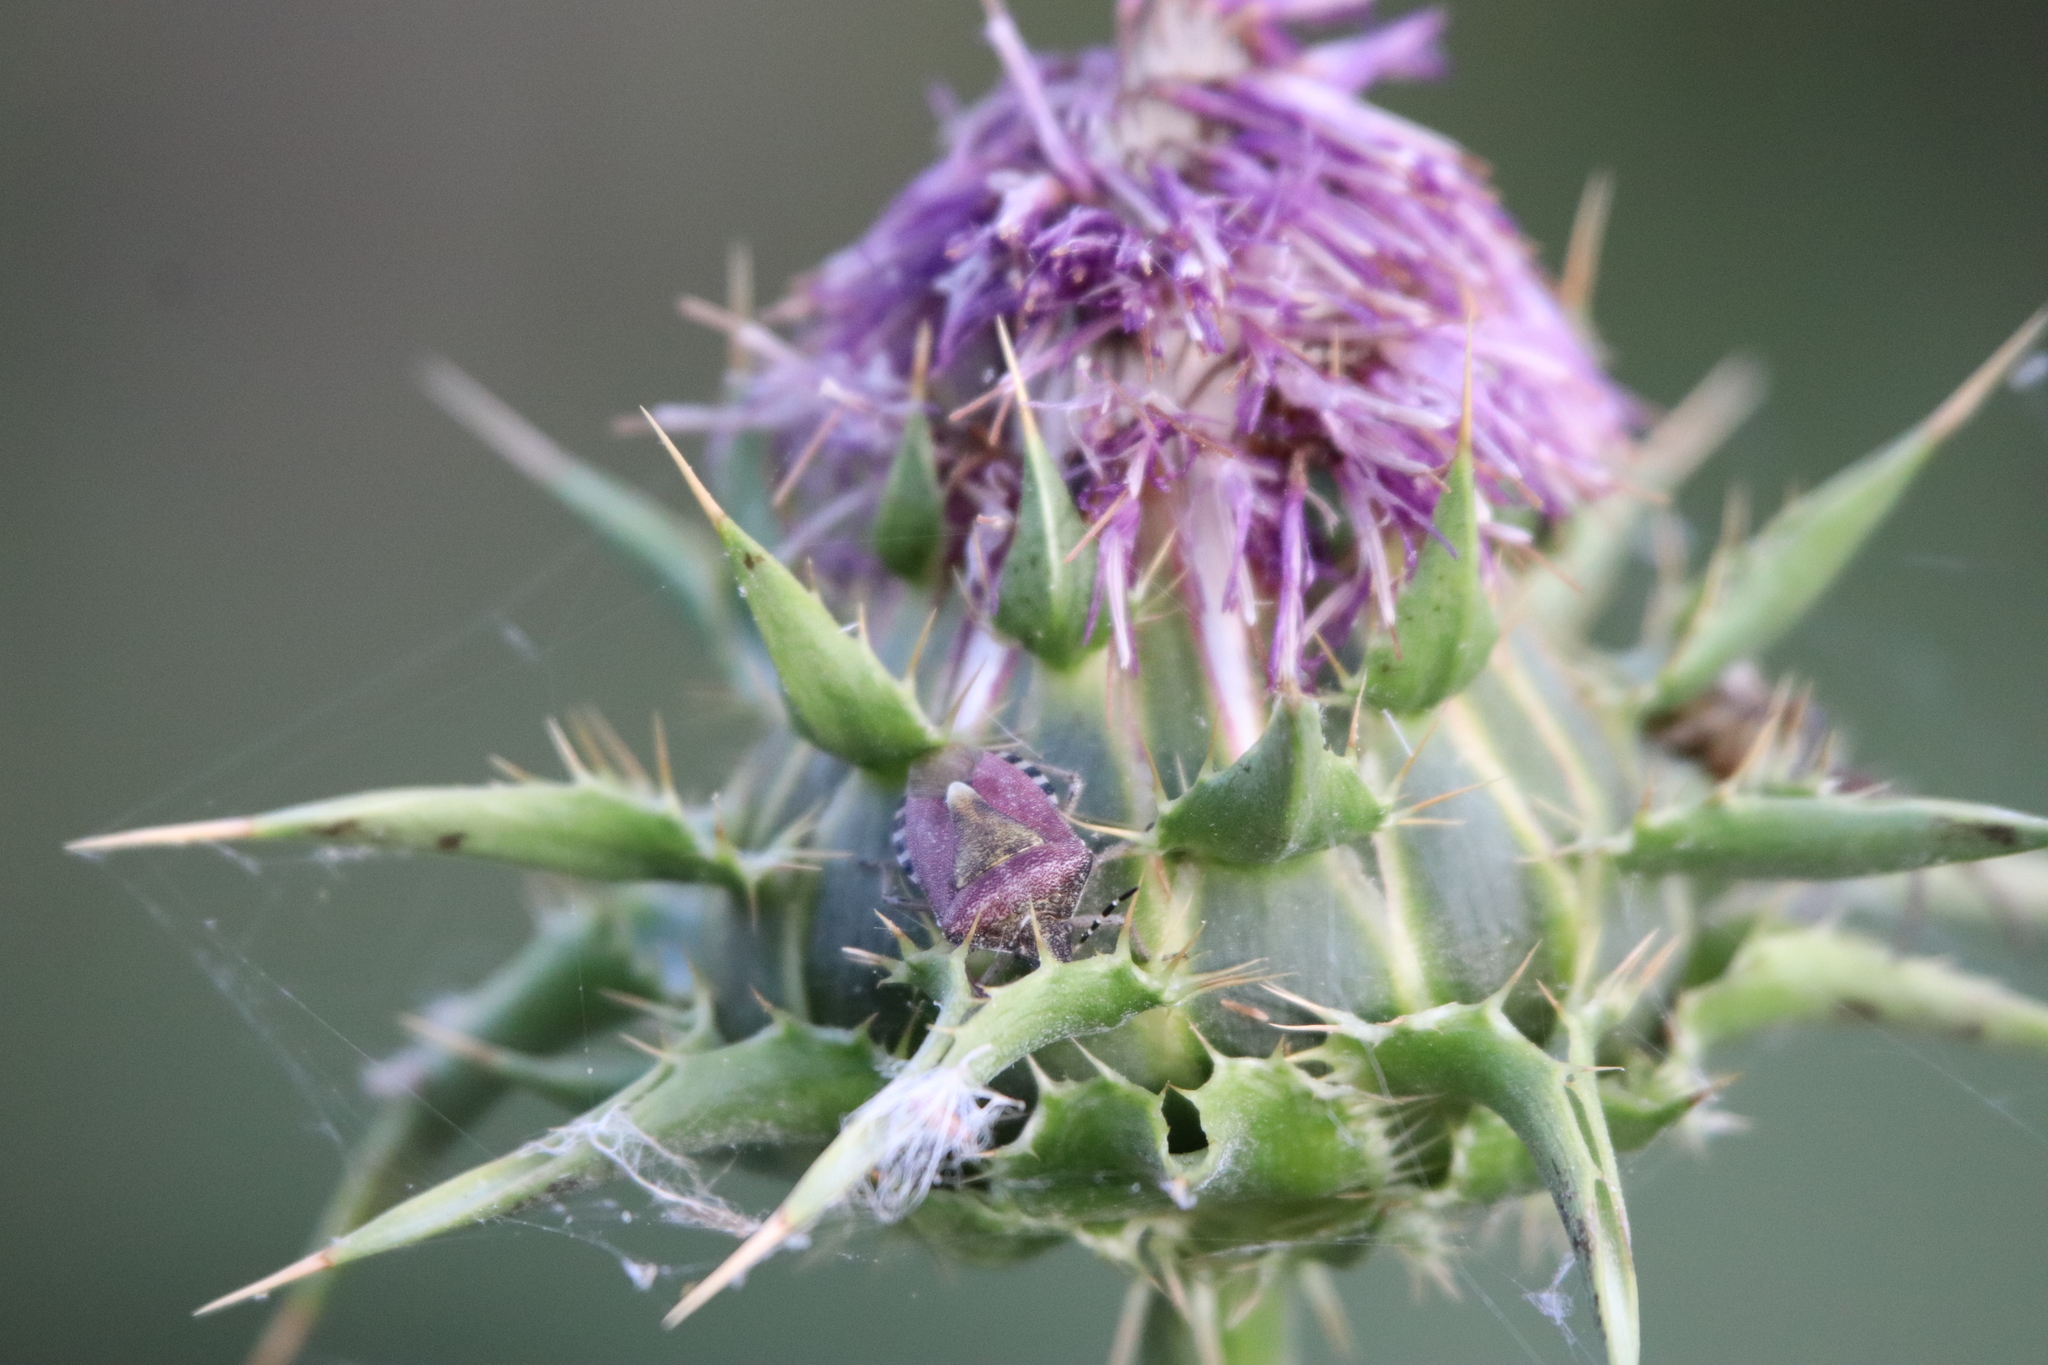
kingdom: Animalia
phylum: Arthropoda
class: Insecta
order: Hemiptera
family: Pentatomidae
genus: Dolycoris
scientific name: Dolycoris baccarum
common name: Sloe bug
